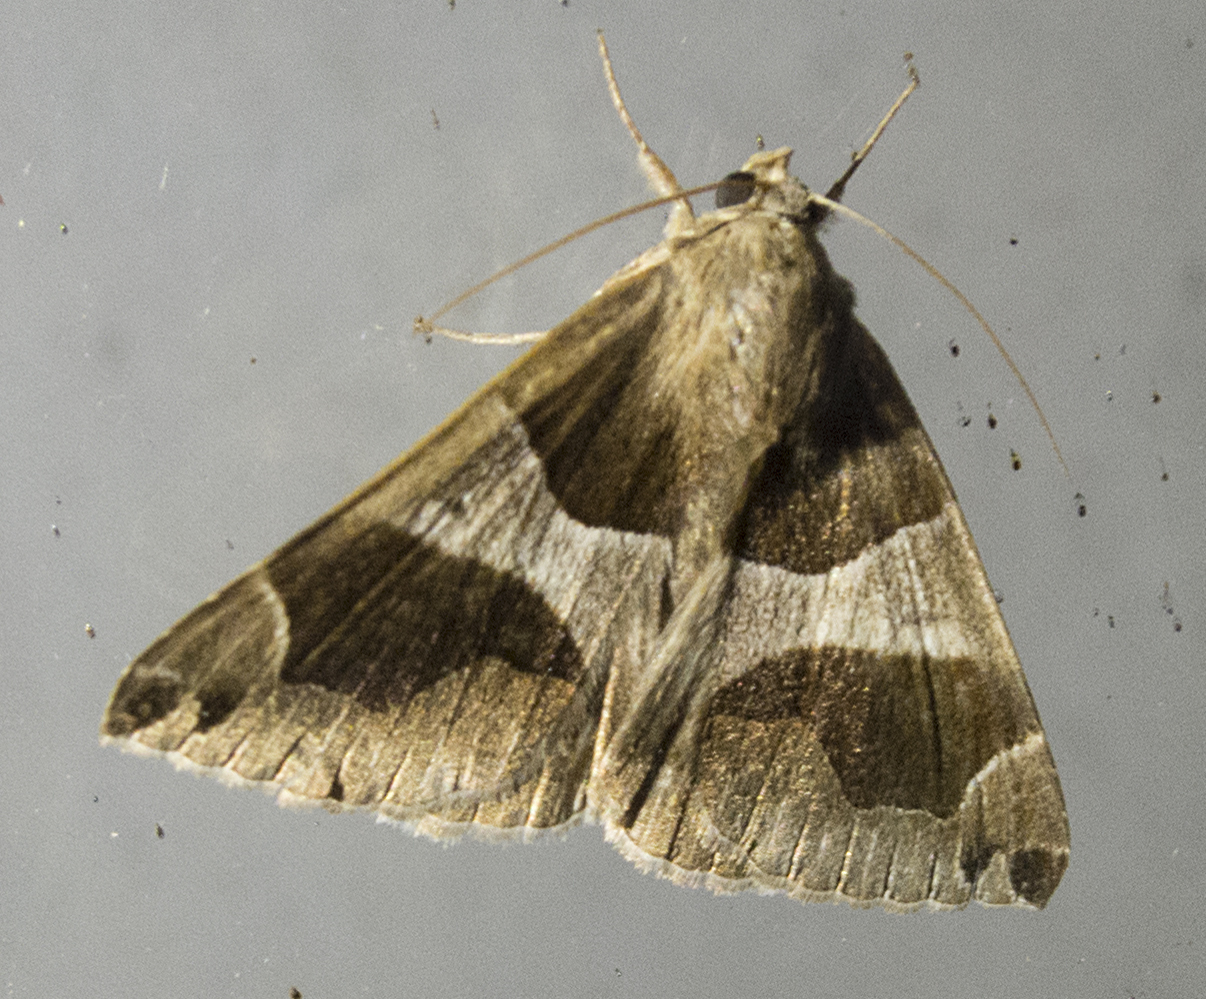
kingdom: Animalia
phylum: Arthropoda
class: Insecta
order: Lepidoptera
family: Erebidae
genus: Dysgonia
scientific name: Dysgonia algira
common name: Passenger
